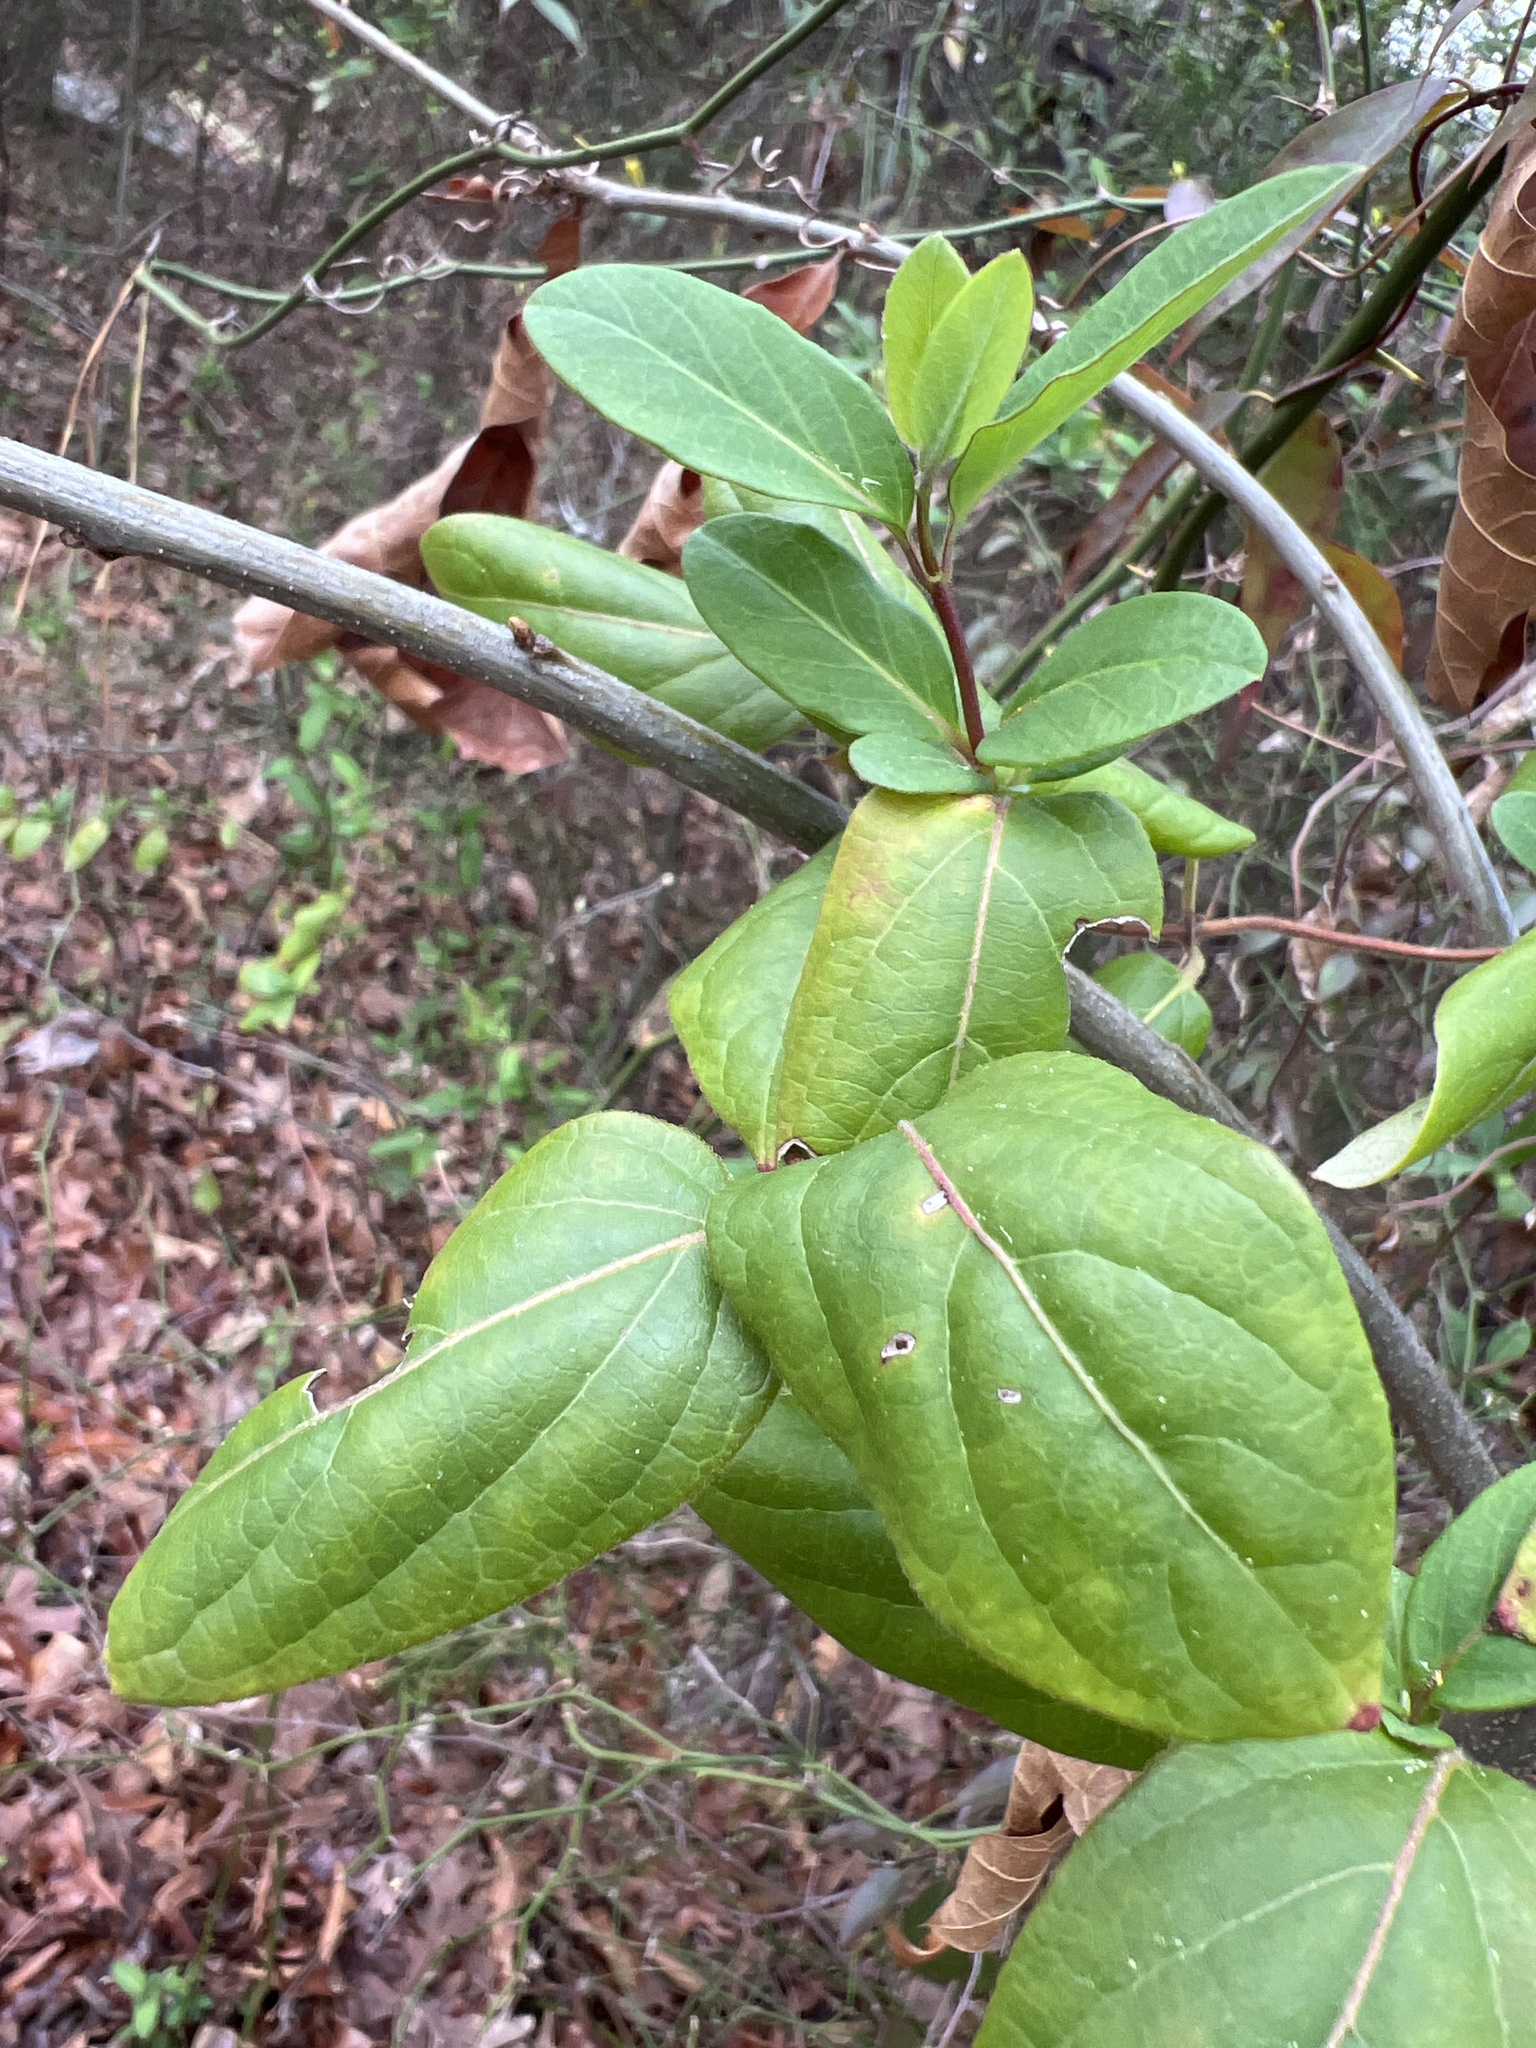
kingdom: Plantae
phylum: Tracheophyta
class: Magnoliopsida
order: Dipsacales
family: Caprifoliaceae
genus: Lonicera
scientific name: Lonicera japonica
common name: Japanese honeysuckle
